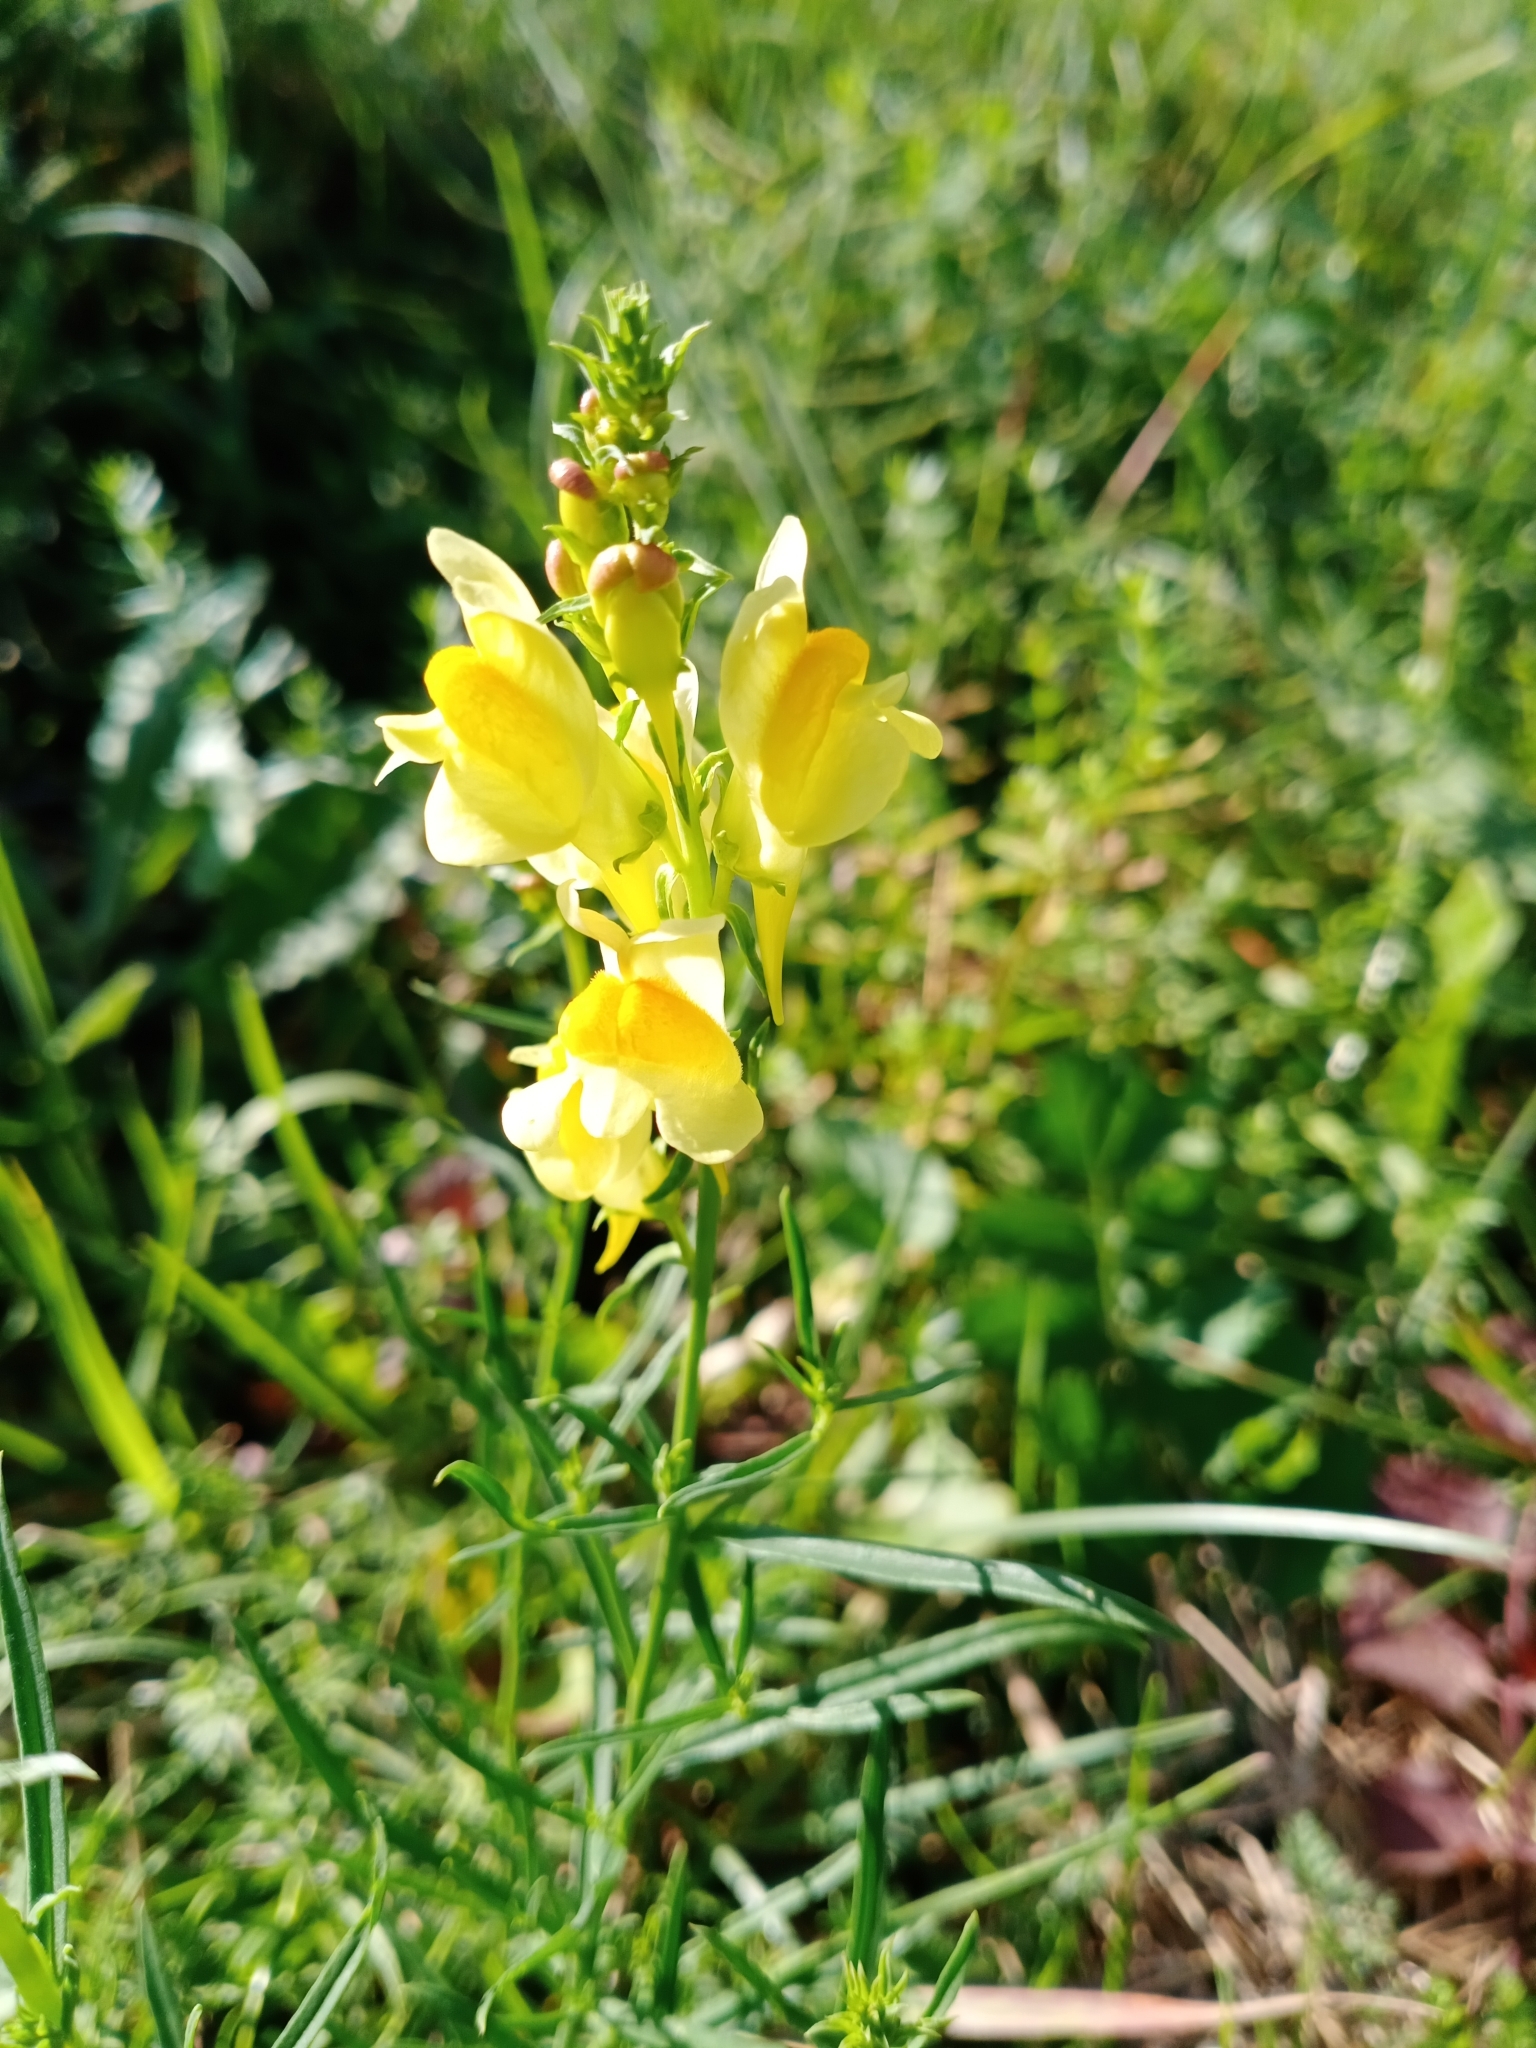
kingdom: Plantae
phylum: Tracheophyta
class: Magnoliopsida
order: Lamiales
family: Plantaginaceae
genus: Linaria
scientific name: Linaria vulgaris
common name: Butter and eggs
